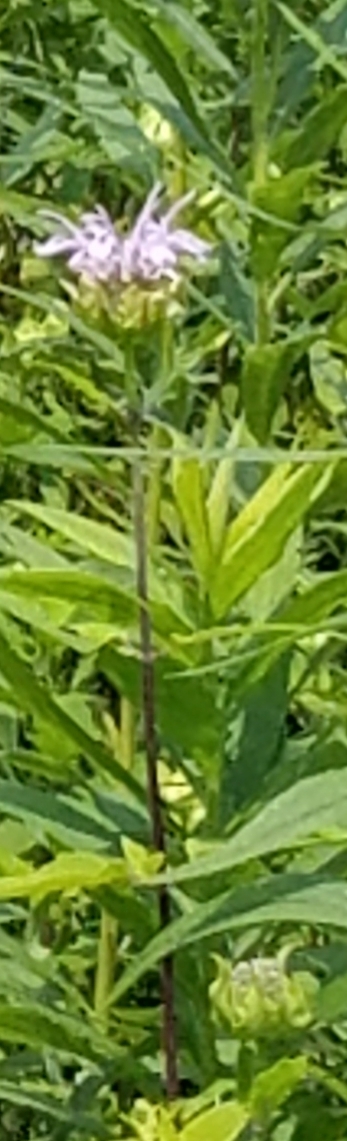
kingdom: Plantae
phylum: Tracheophyta
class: Magnoliopsida
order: Lamiales
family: Lamiaceae
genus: Monarda
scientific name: Monarda fistulosa
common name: Purple beebalm
